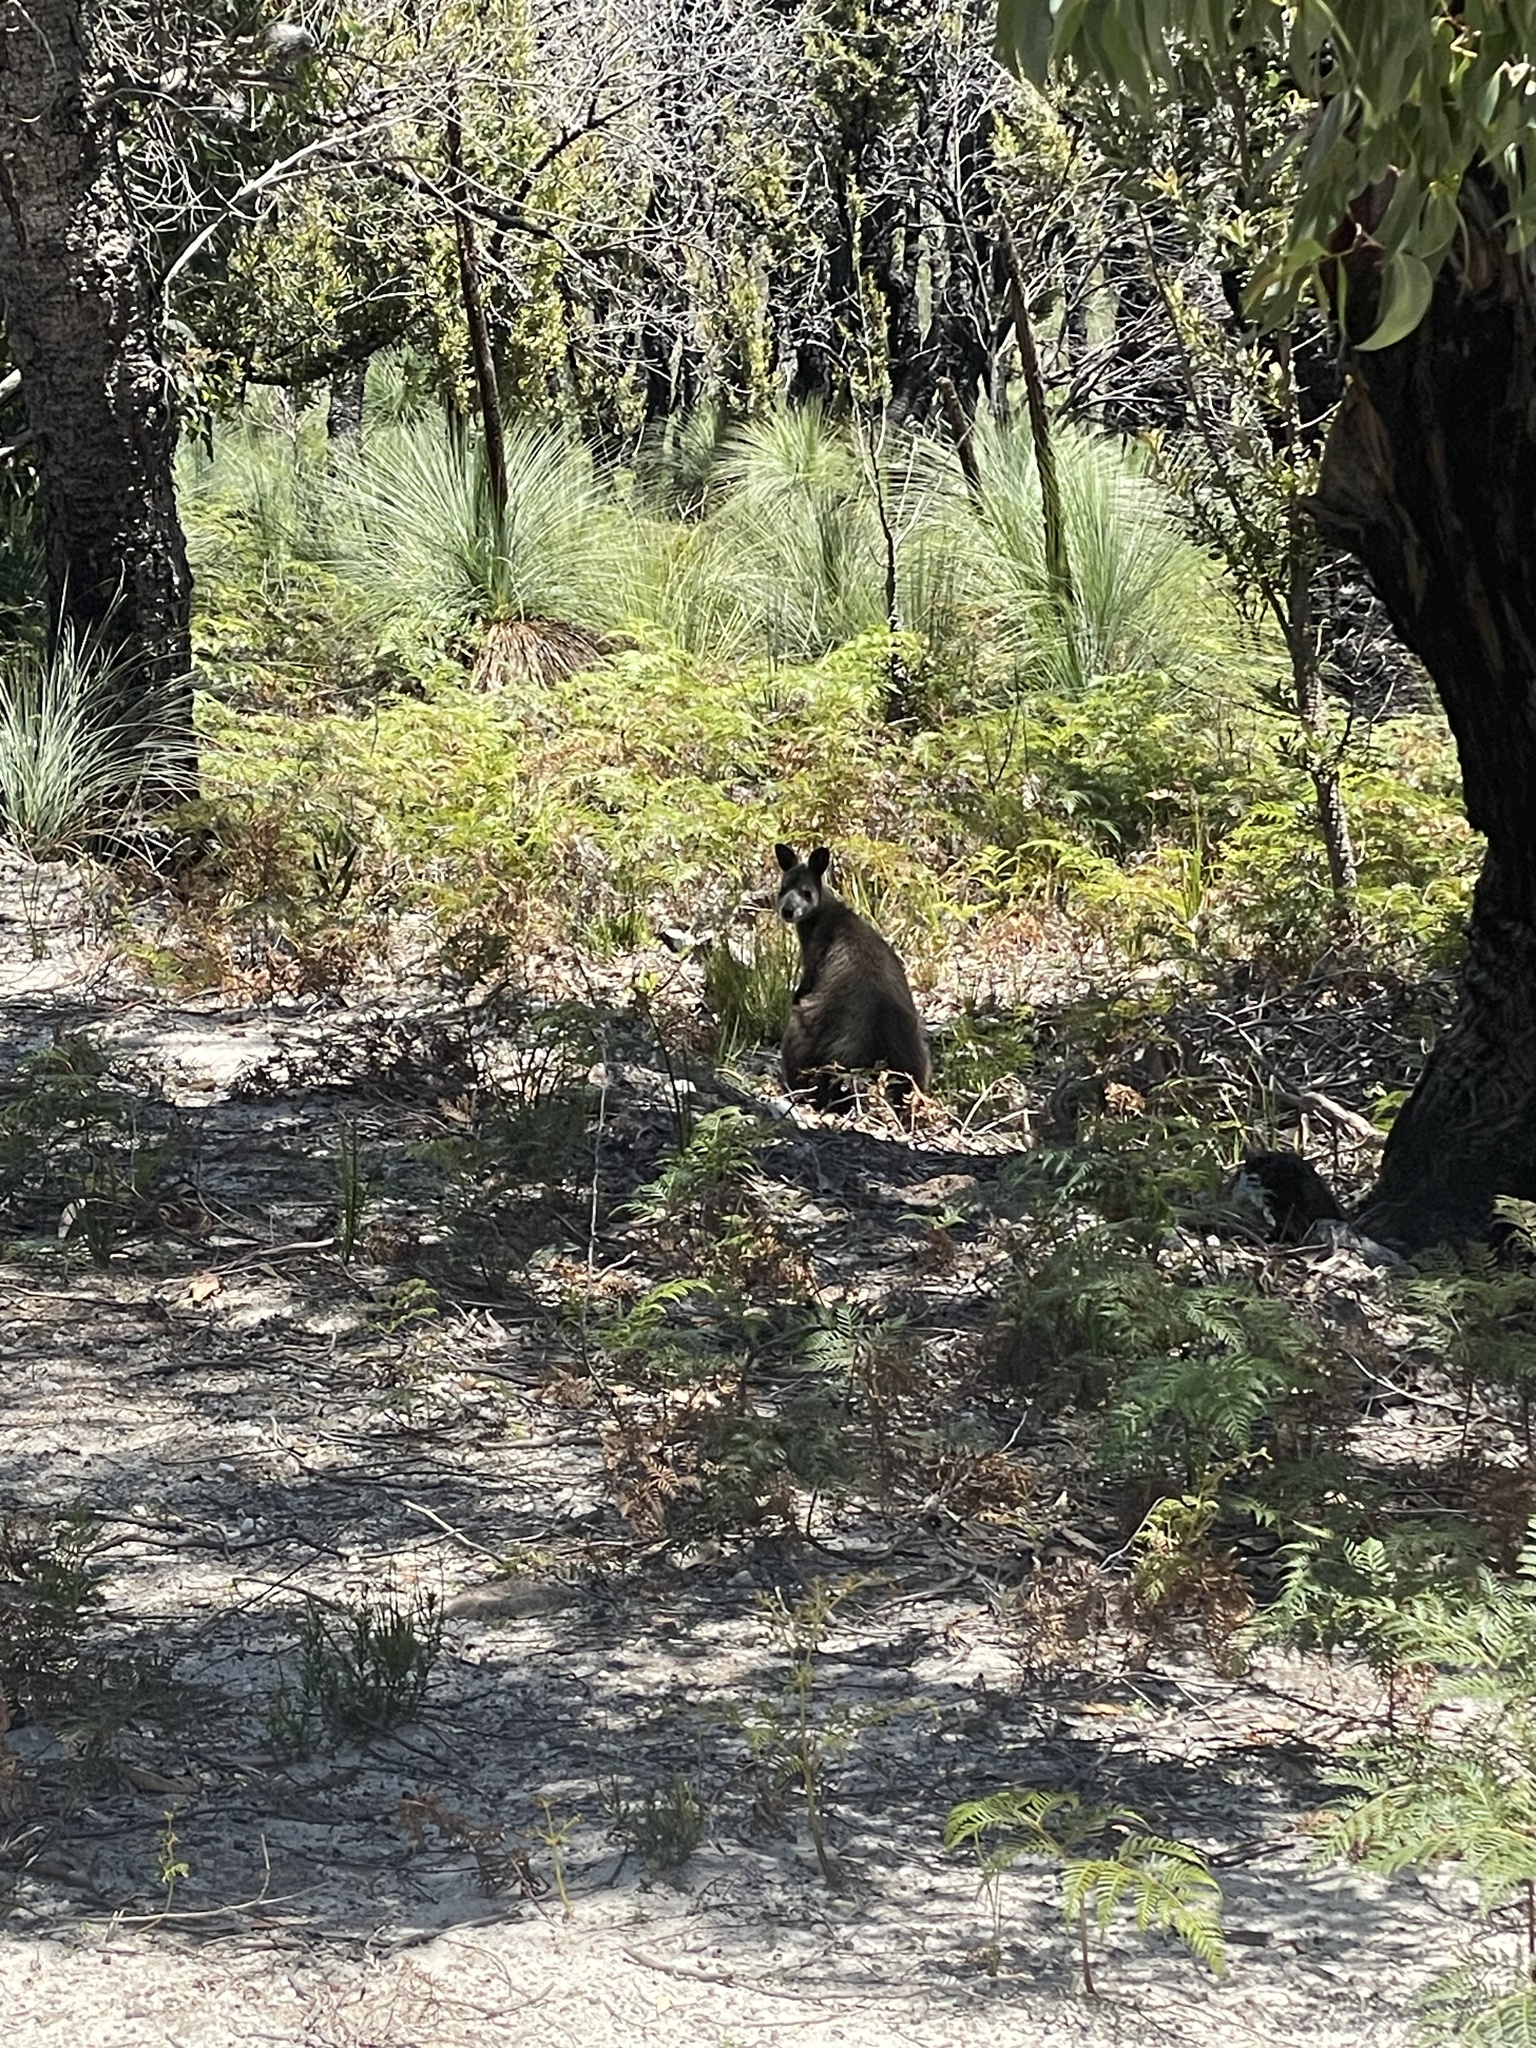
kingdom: Animalia
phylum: Chordata
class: Mammalia
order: Diprotodontia
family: Macropodidae
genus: Wallabia
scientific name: Wallabia bicolor
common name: Swamp wallaby
